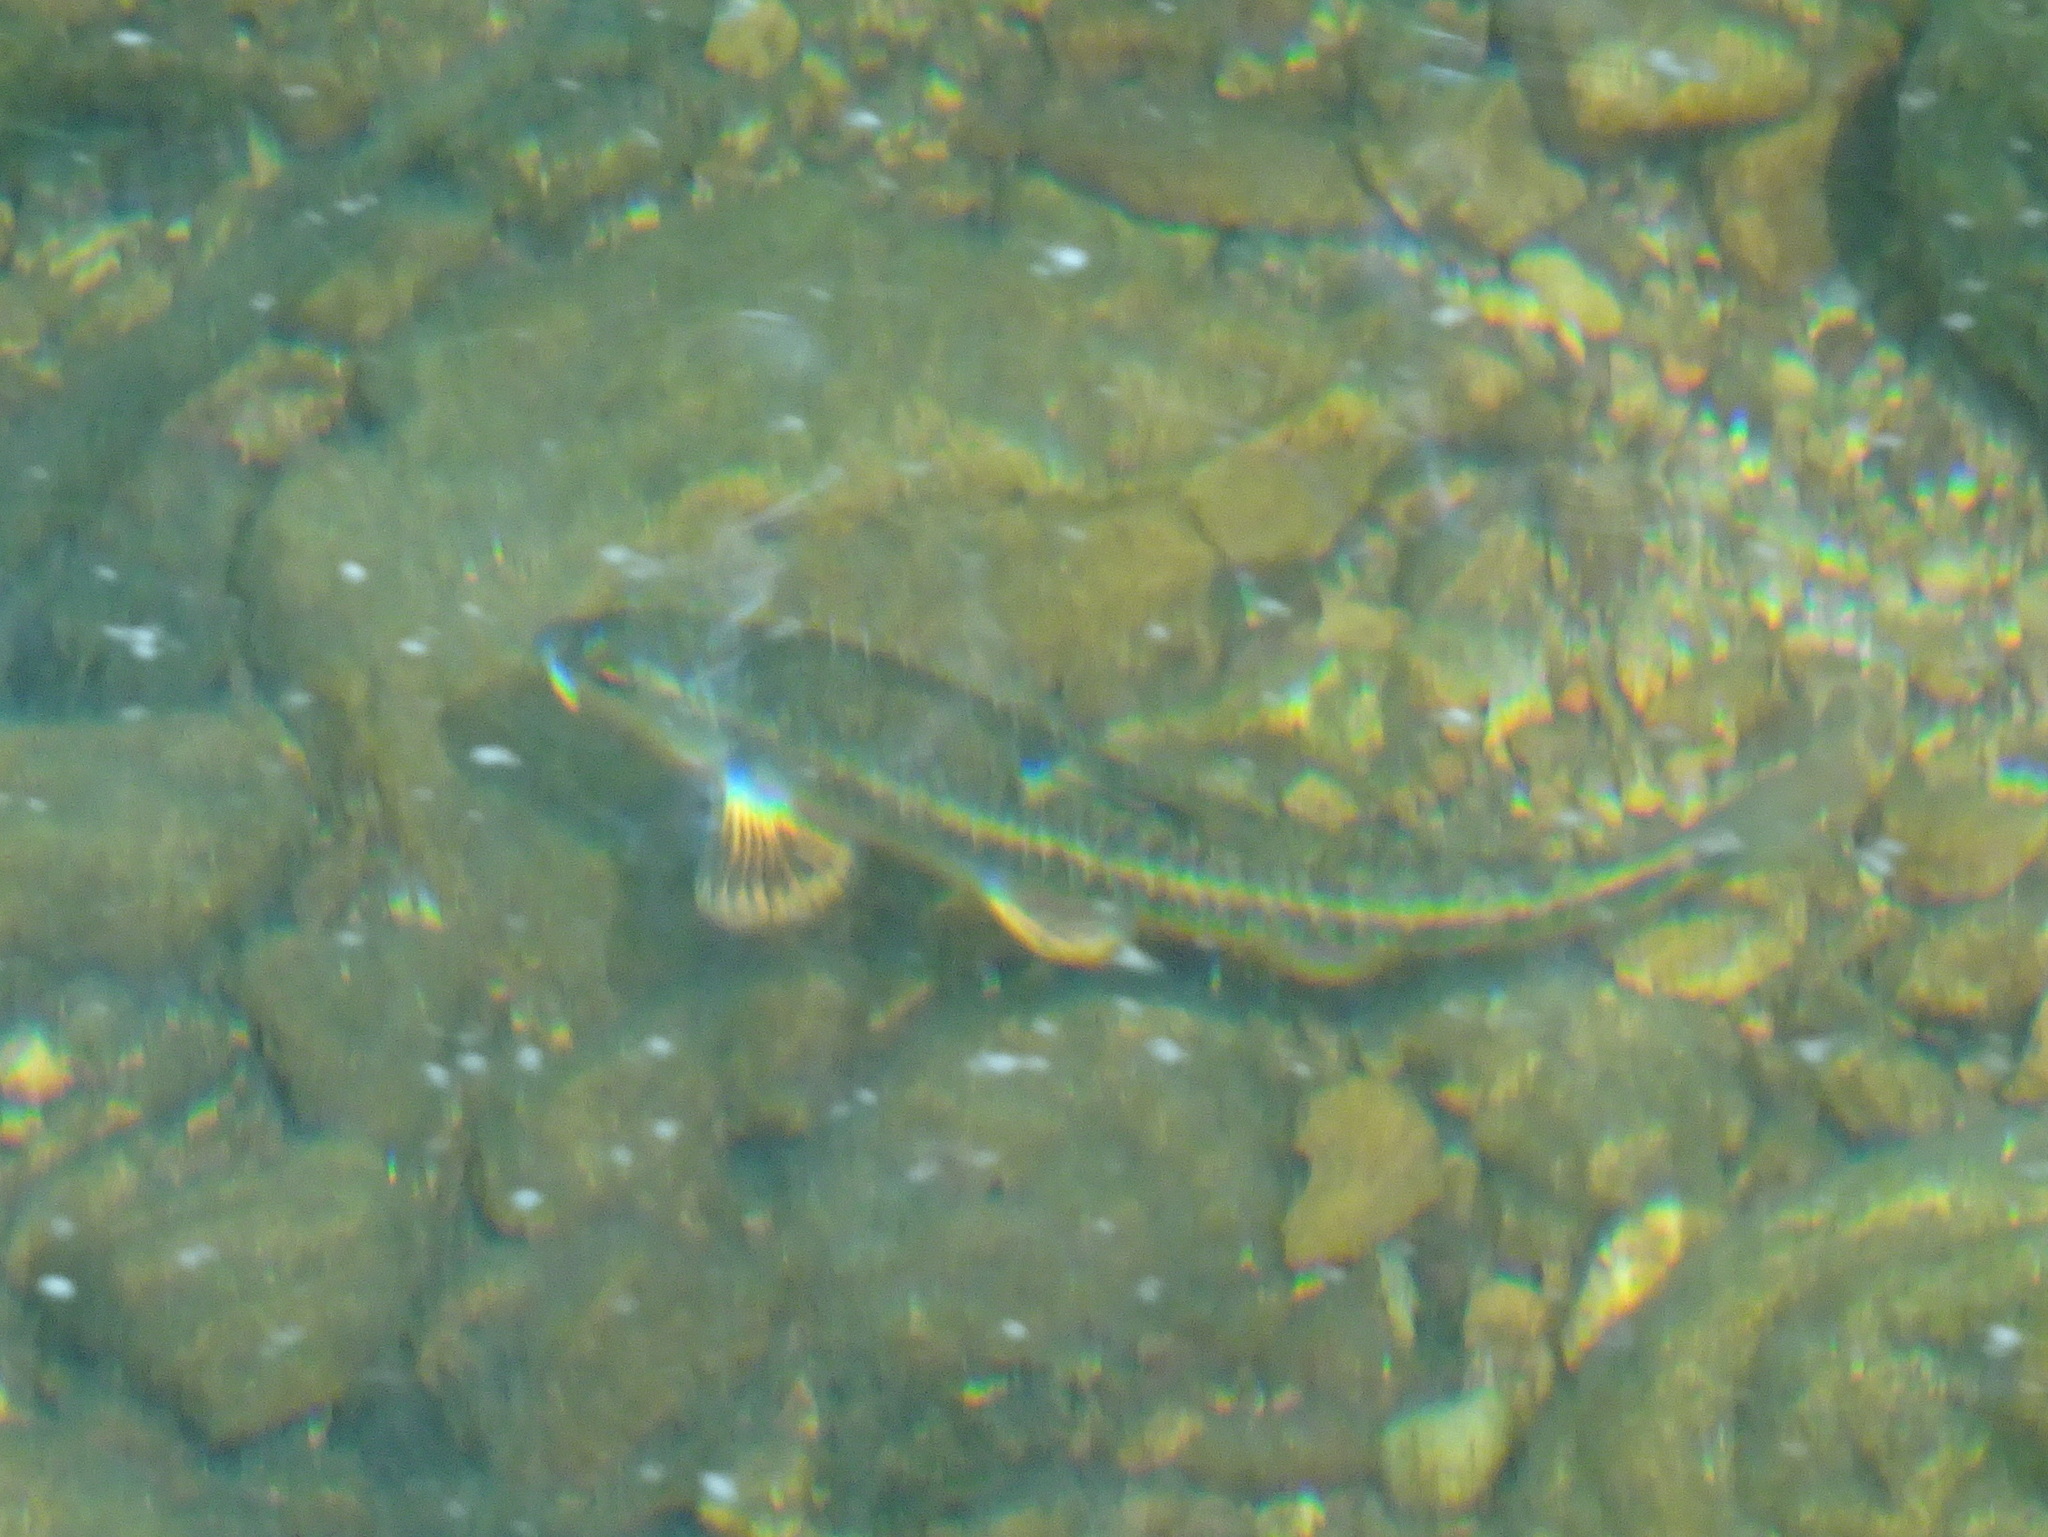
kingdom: Animalia
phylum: Chordata
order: Cypriniformes
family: Cyprinidae
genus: Campostoma
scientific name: Campostoma anomalum
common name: Central stoneroller
